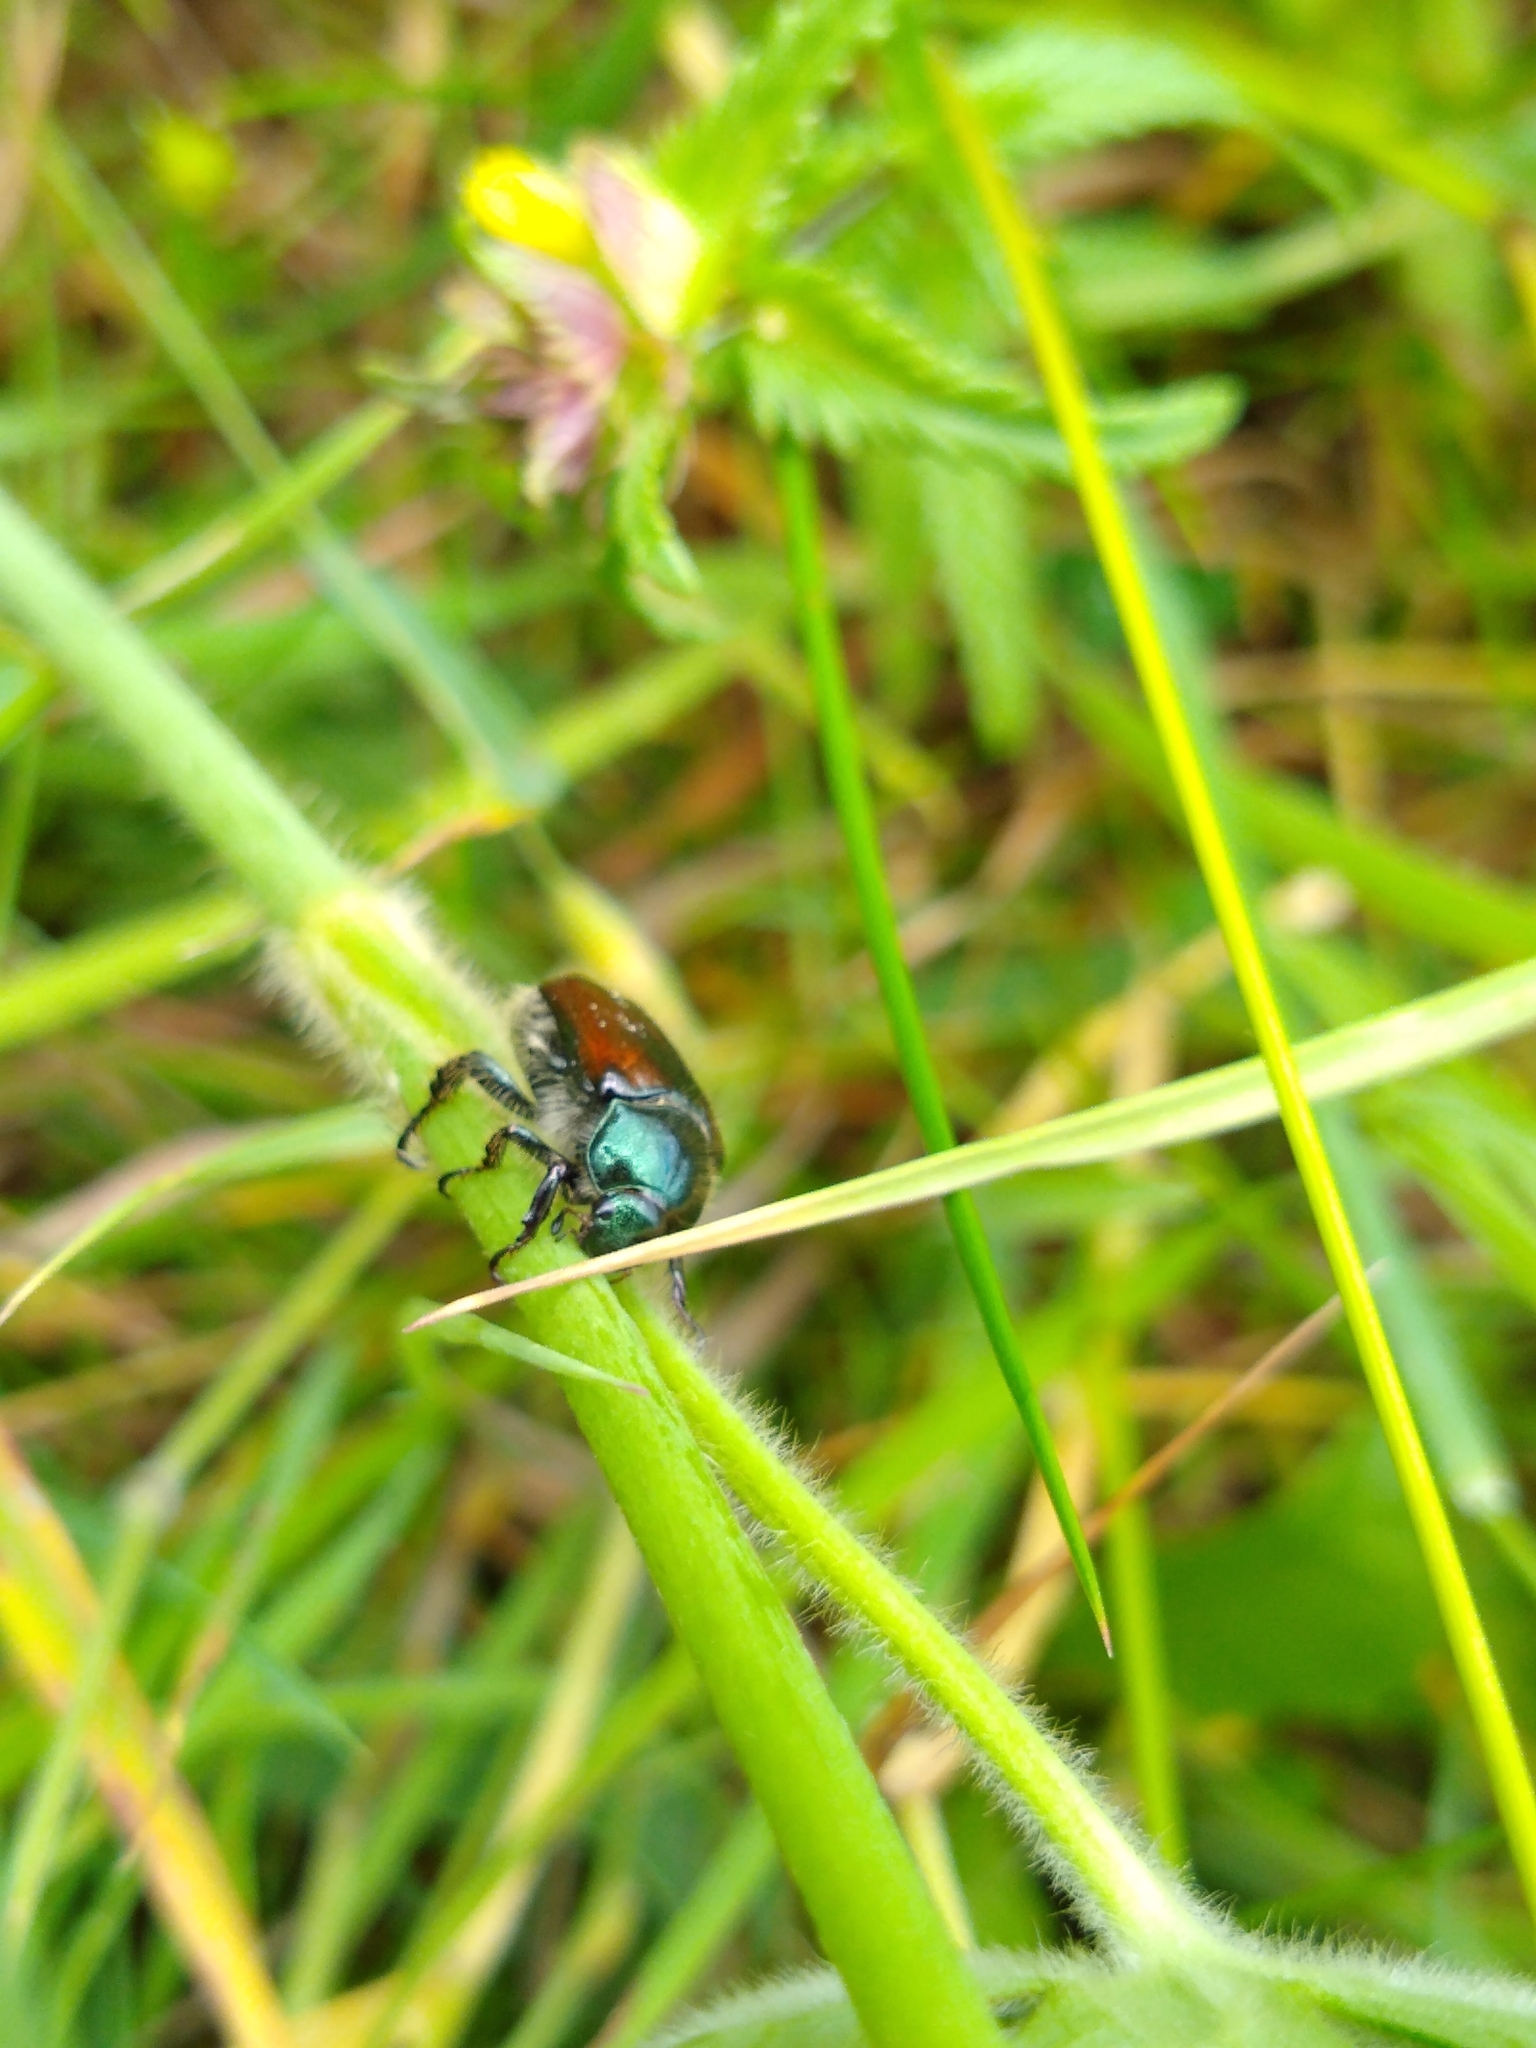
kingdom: Animalia
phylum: Arthropoda
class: Insecta
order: Coleoptera
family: Scarabaeidae
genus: Phyllopertha
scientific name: Phyllopertha horticola
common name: Garden chafer
